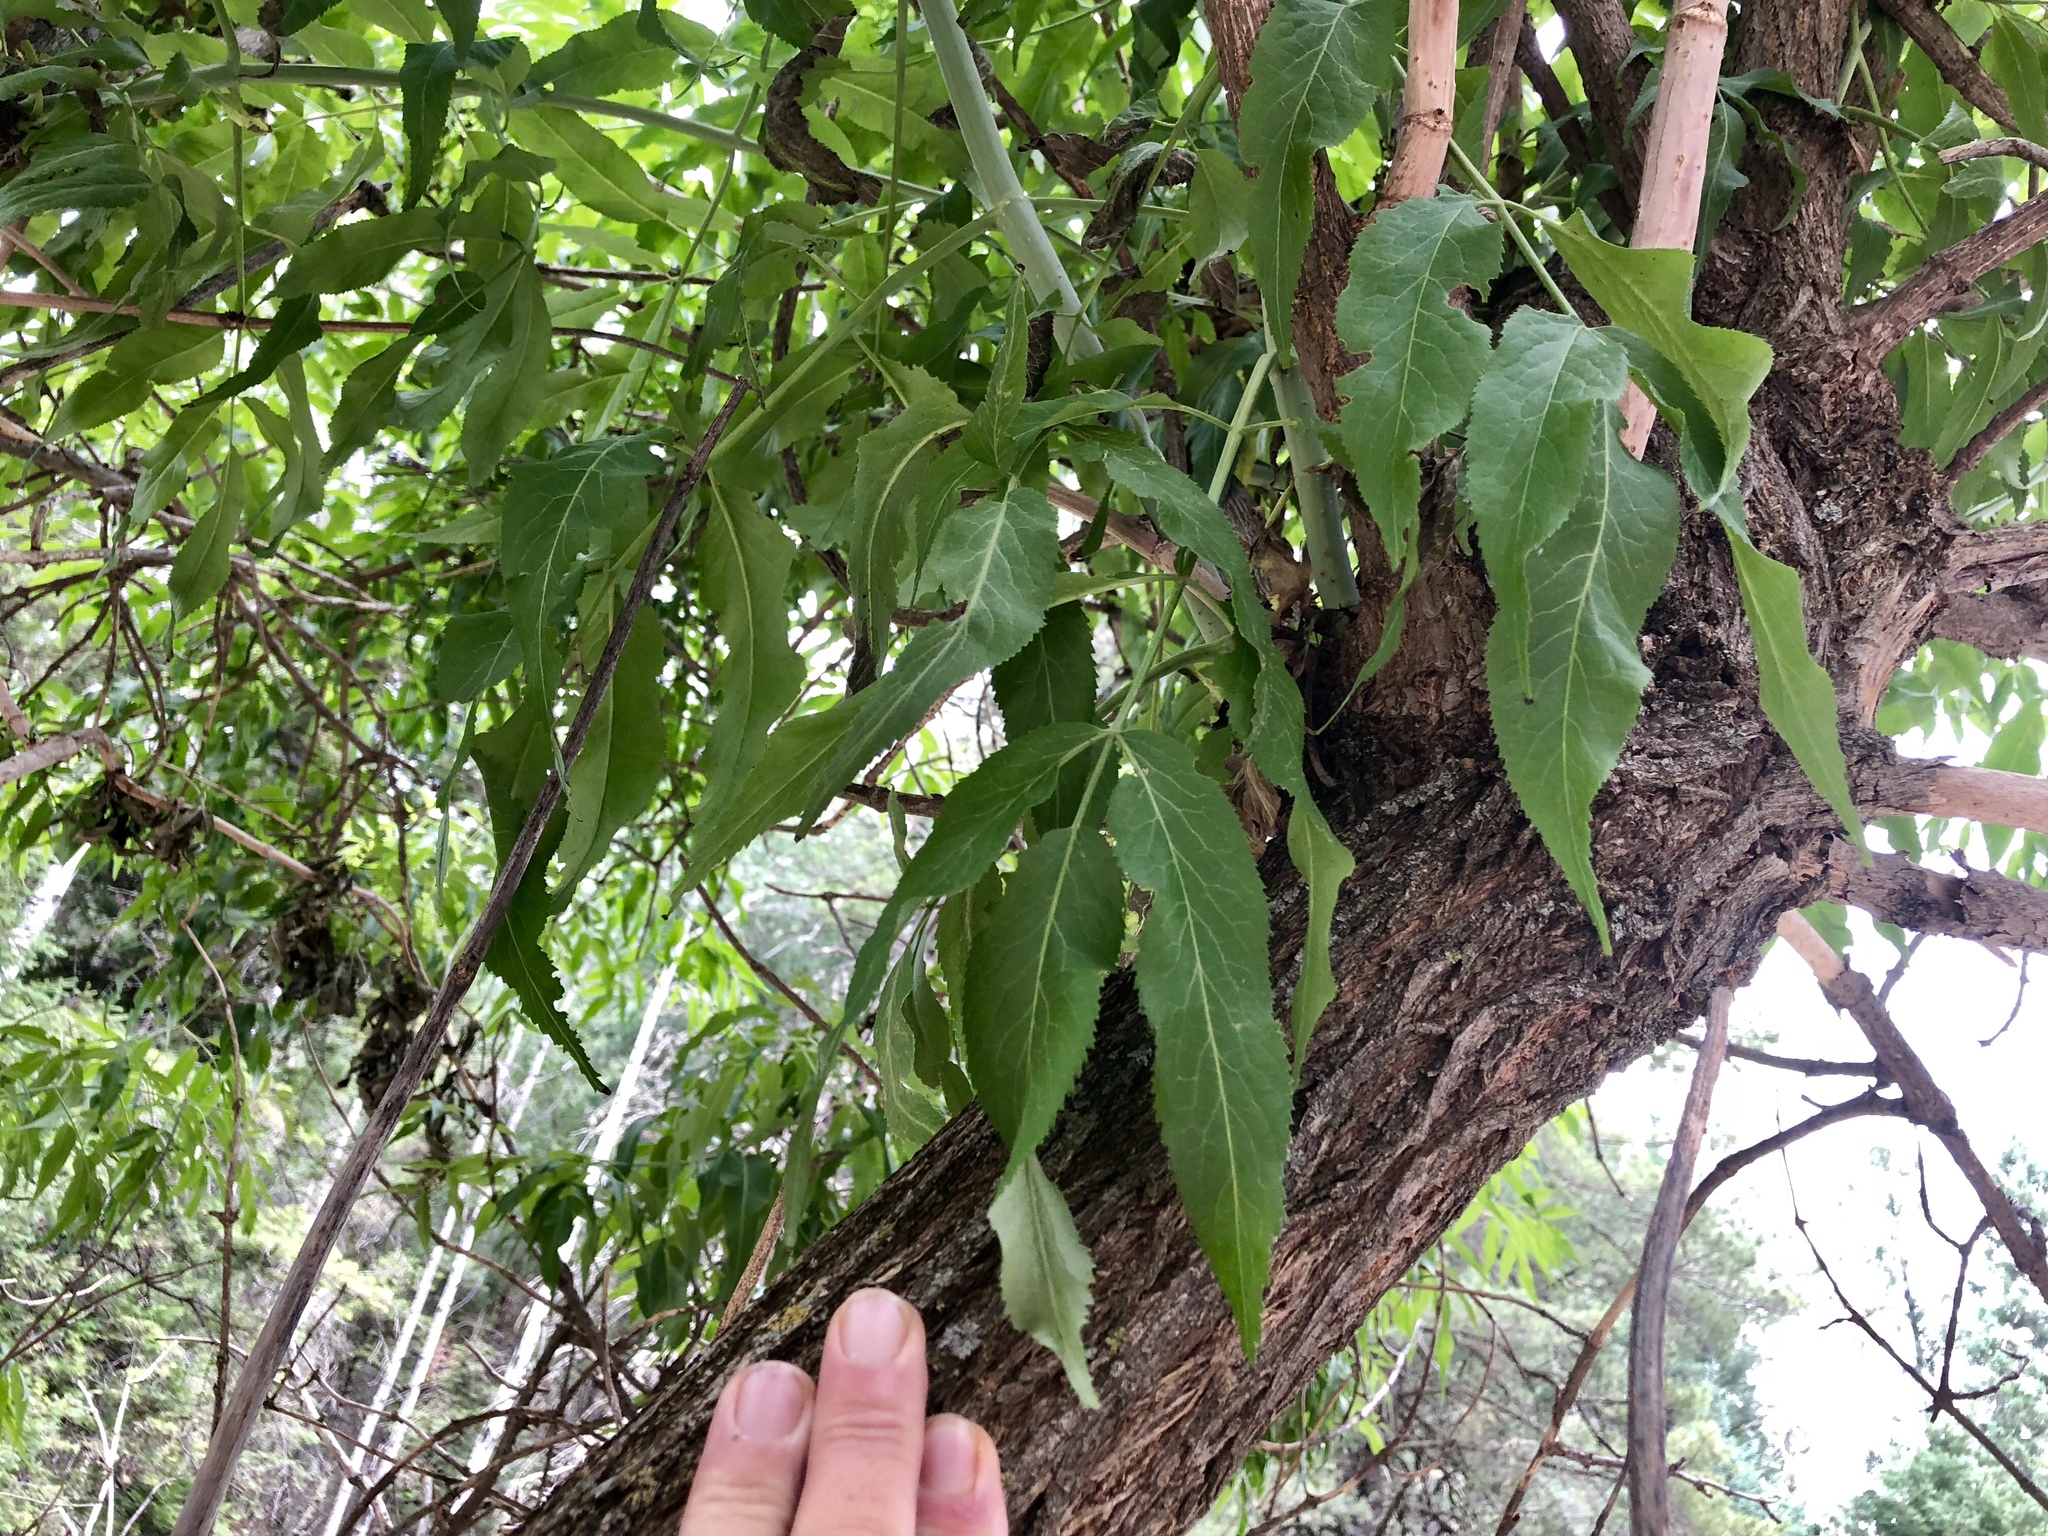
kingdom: Plantae
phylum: Tracheophyta
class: Magnoliopsida
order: Fagales
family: Juglandaceae
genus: Juglans
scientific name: Juglans major
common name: Arizona walnut
